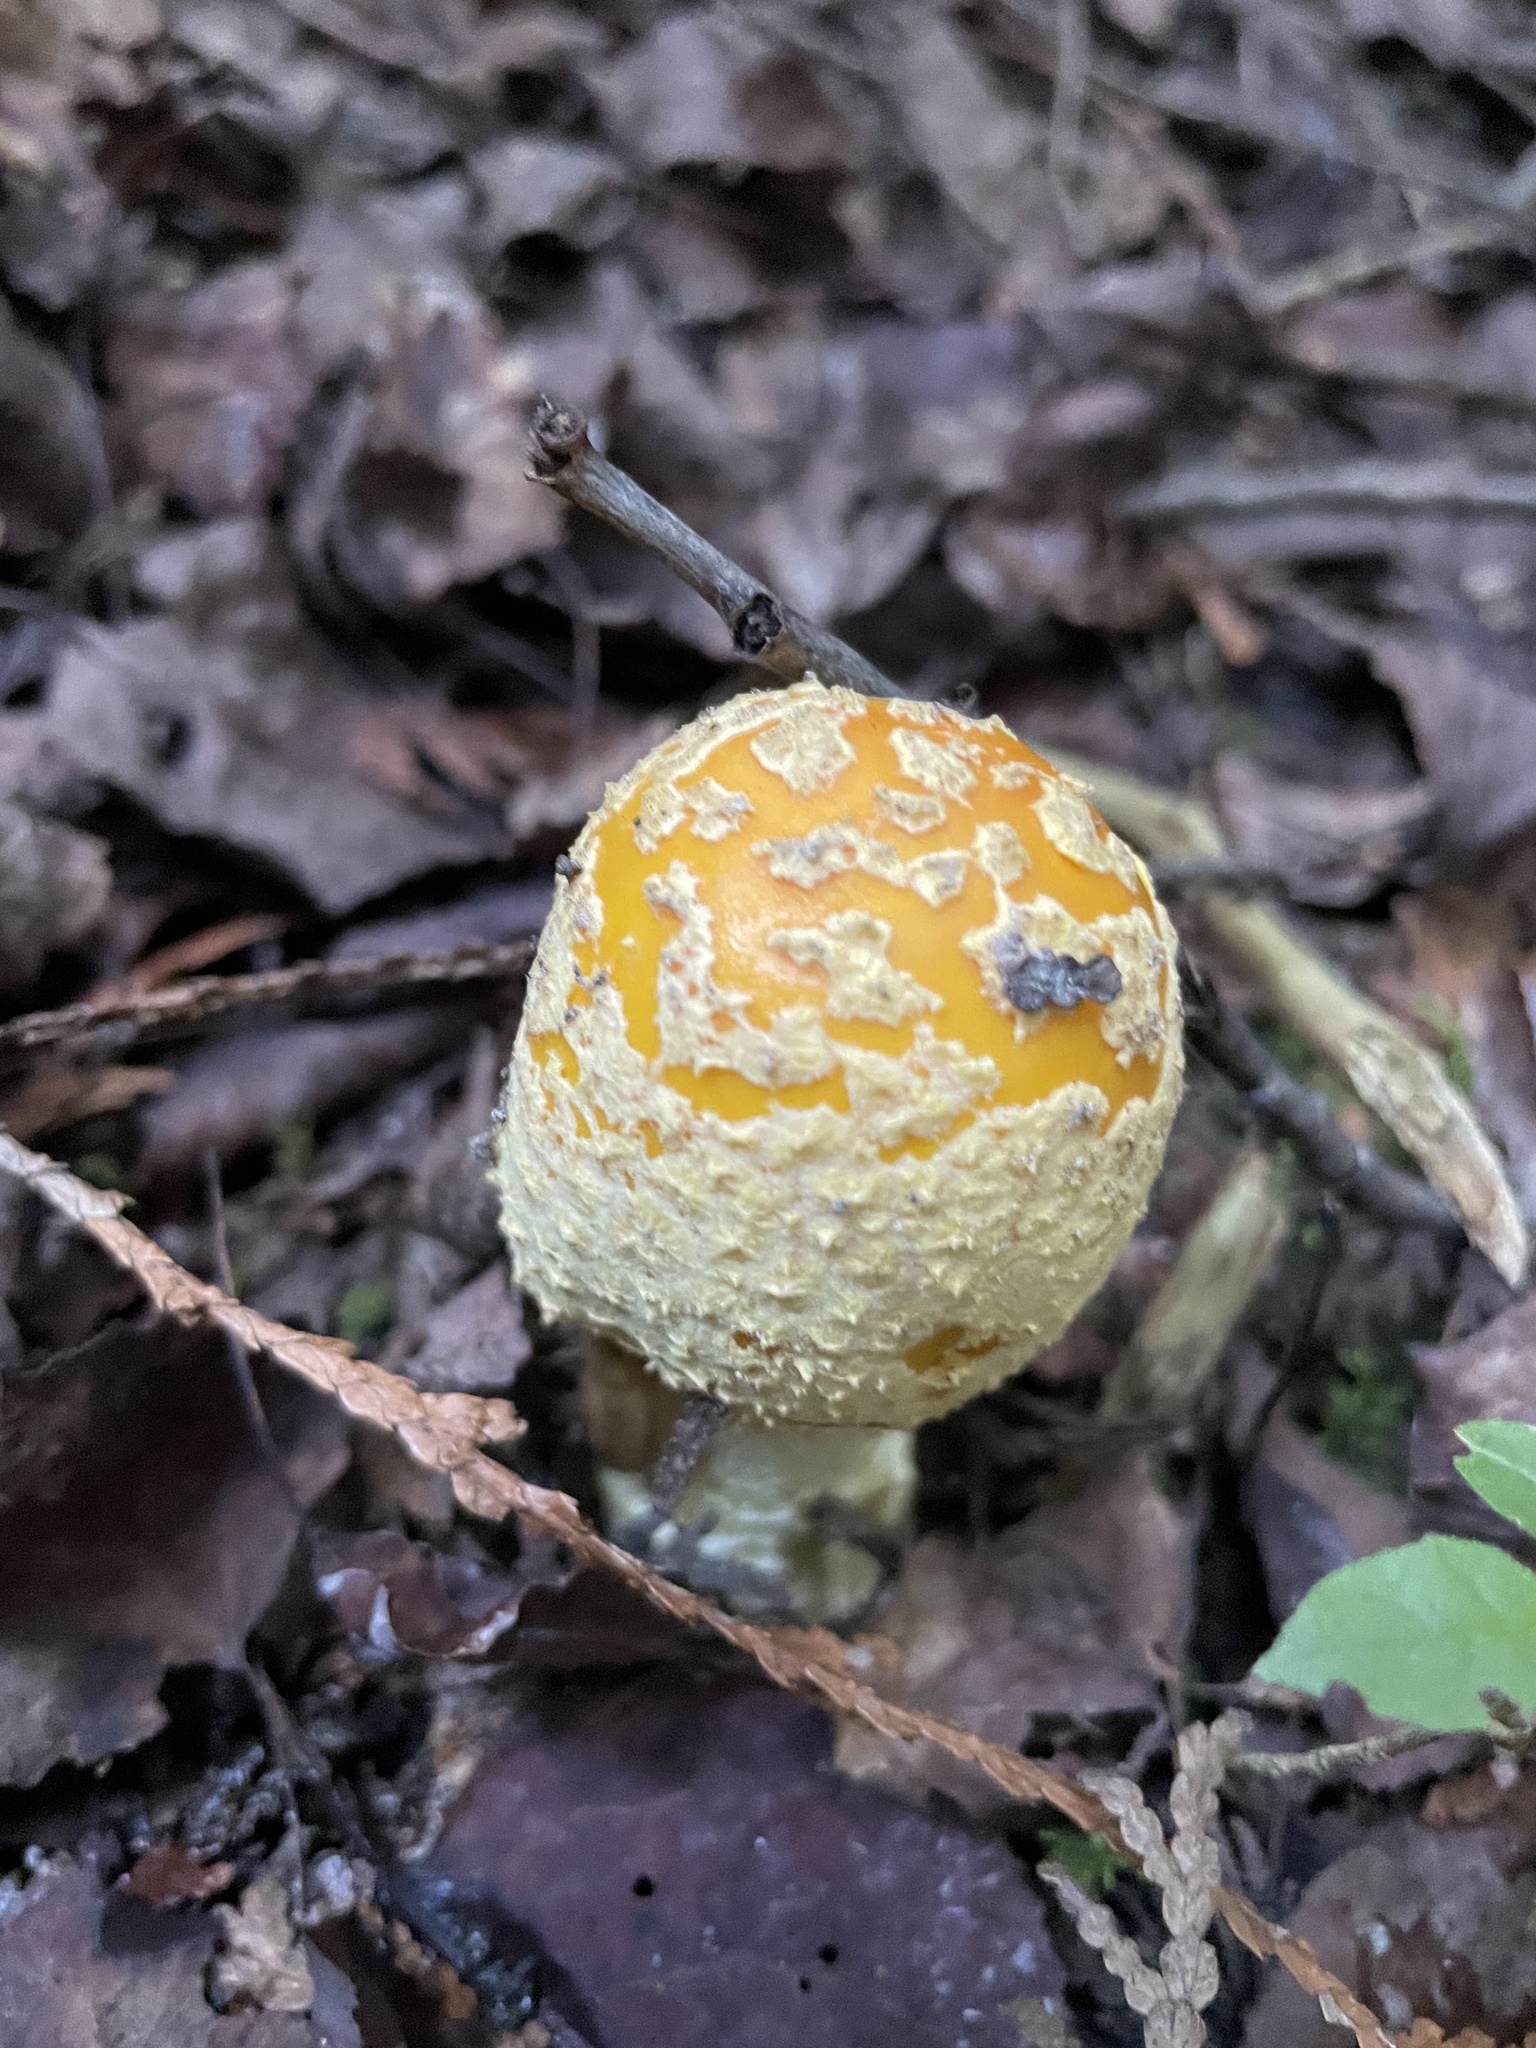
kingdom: Fungi
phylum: Basidiomycota
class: Agaricomycetes
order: Agaricales
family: Amanitaceae
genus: Amanita
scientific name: Amanita muscaria
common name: Fly agaric
